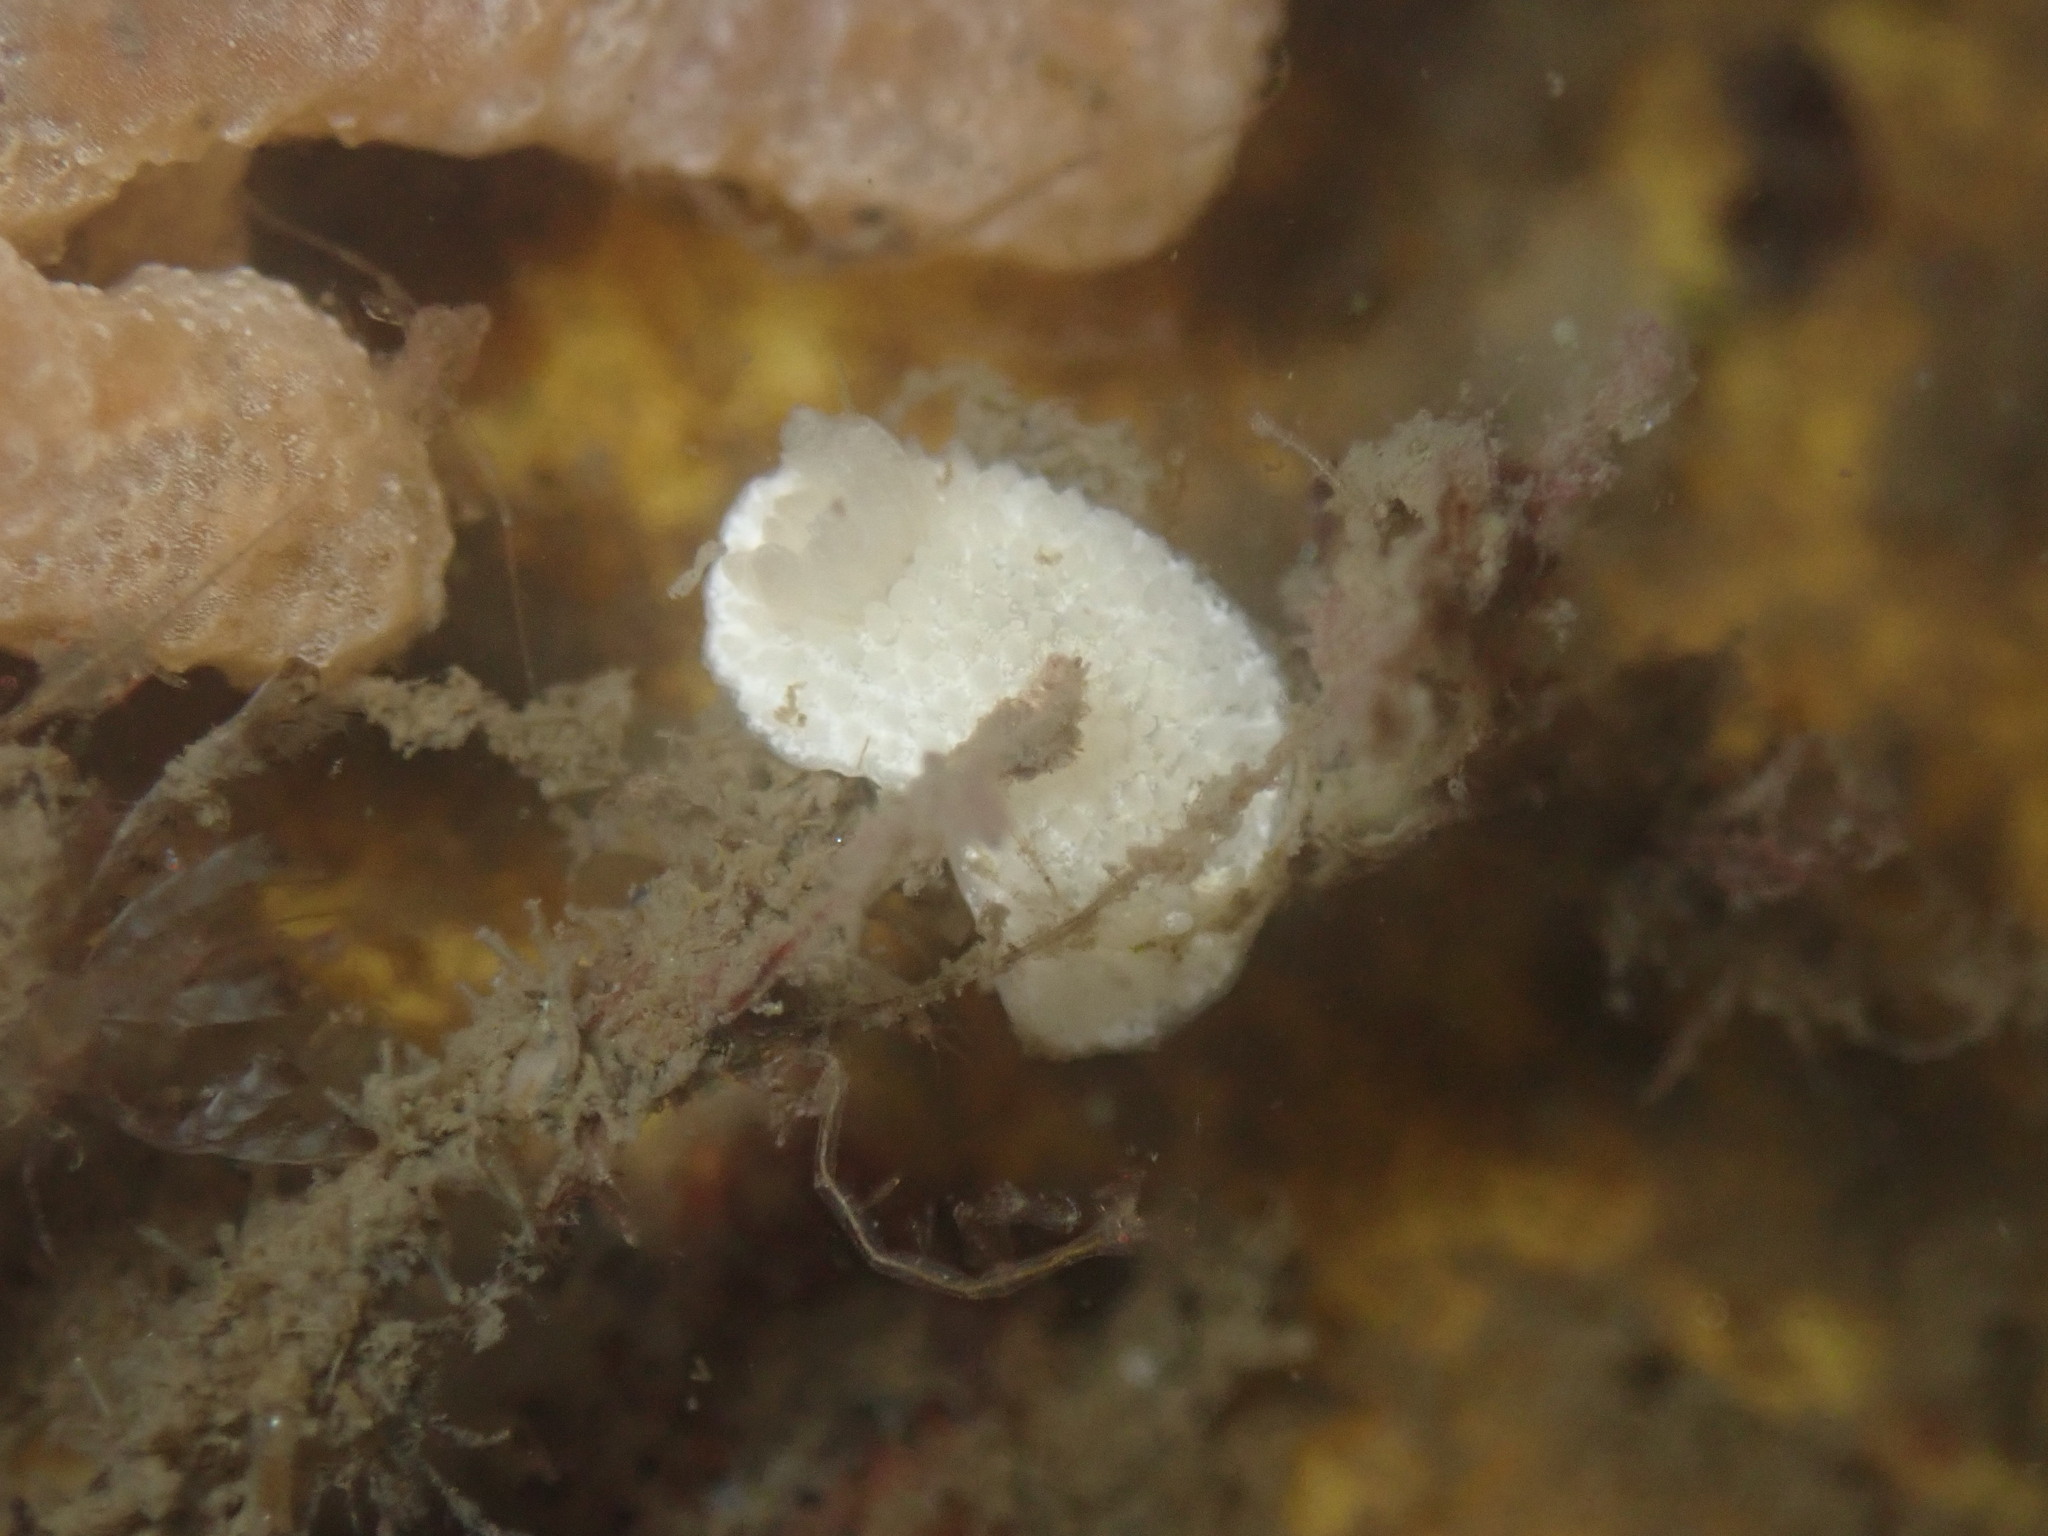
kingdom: Animalia
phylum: Mollusca
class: Gastropoda
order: Nudibranchia
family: Calycidorididae
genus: Diaphorodoris
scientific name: Diaphorodoris lirulatocauda
